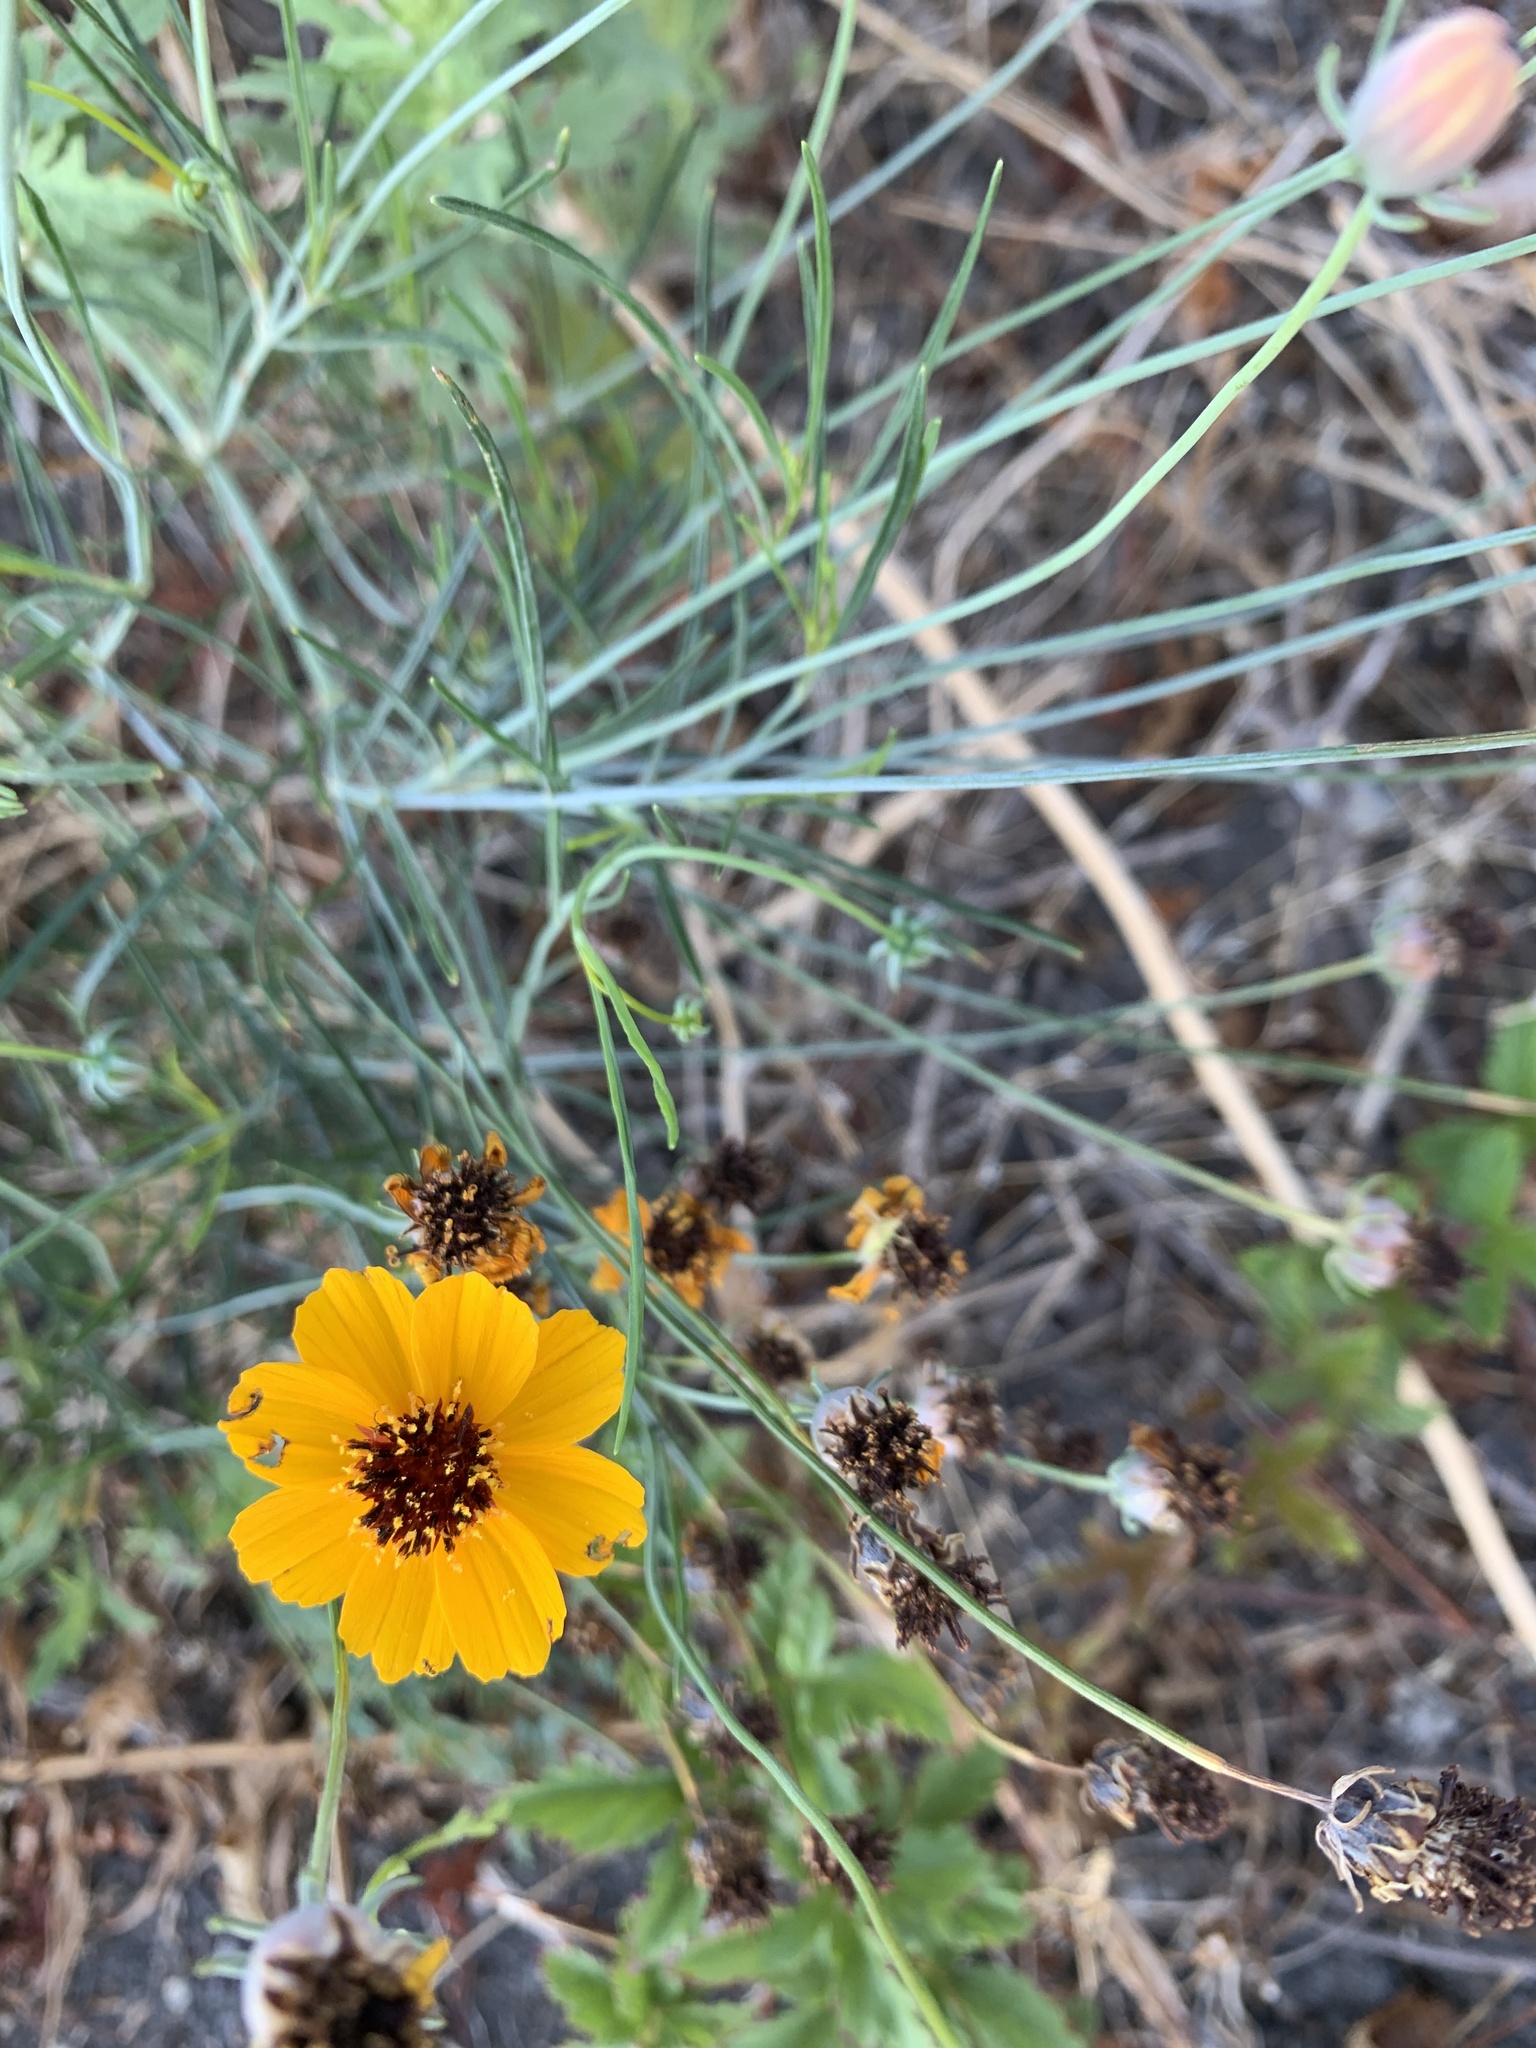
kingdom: Plantae
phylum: Tracheophyta
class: Magnoliopsida
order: Asterales
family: Asteraceae
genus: Thelesperma
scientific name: Thelesperma filifolium
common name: Stiff greenthread
